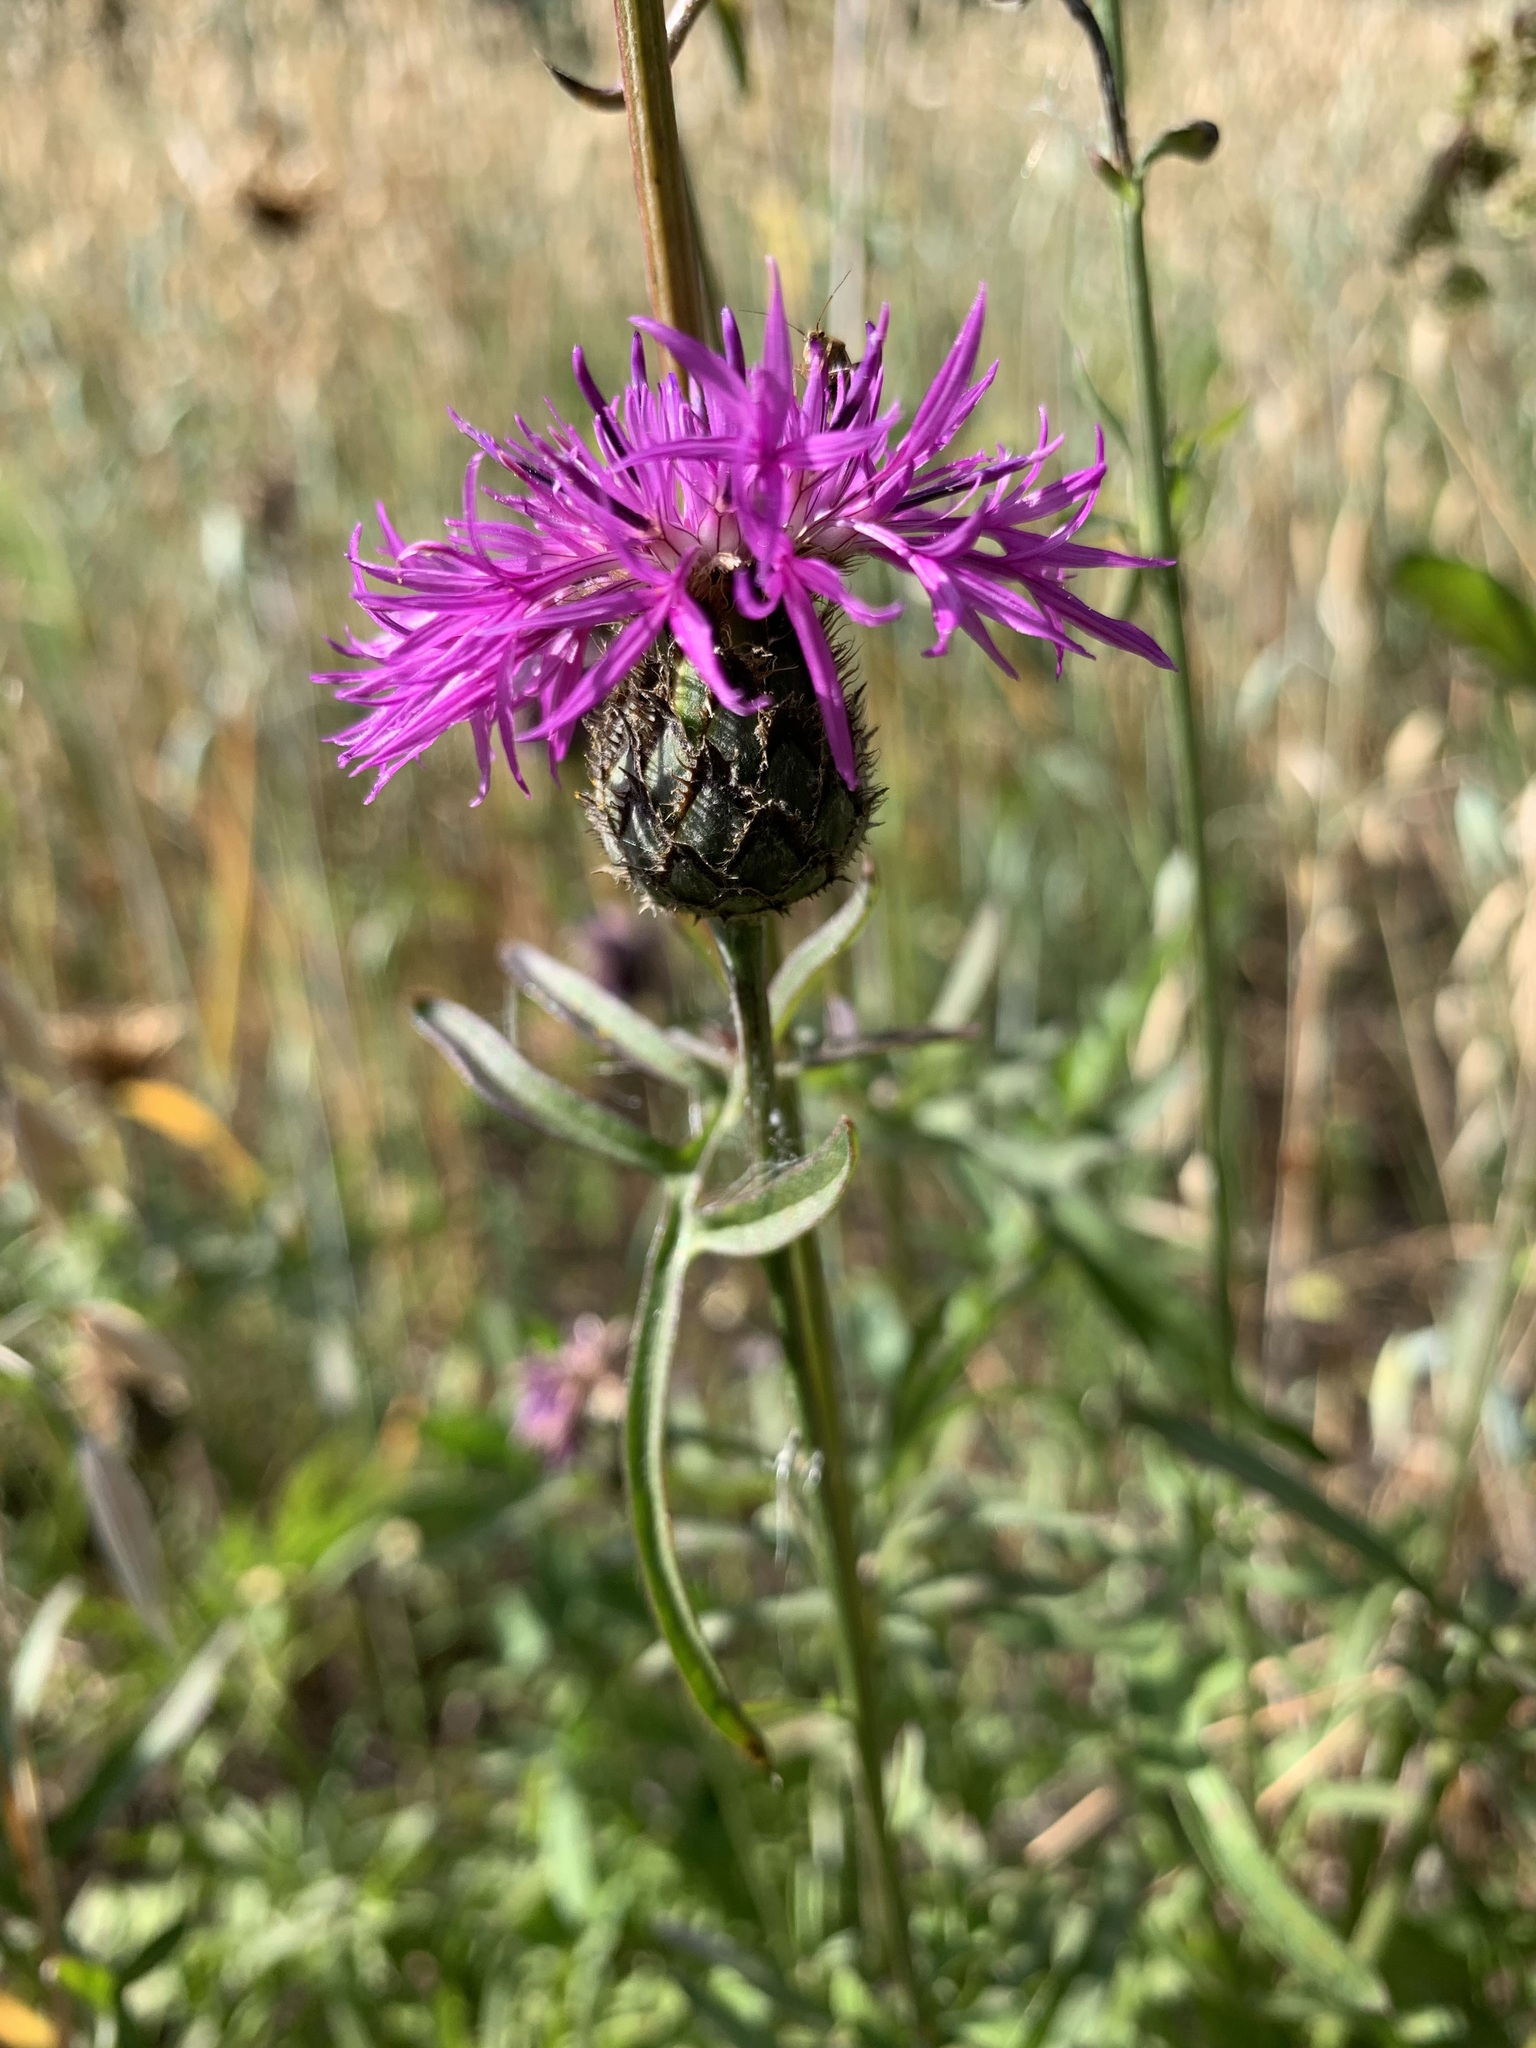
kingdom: Plantae
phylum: Tracheophyta
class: Magnoliopsida
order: Asterales
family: Asteraceae
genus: Centaurea
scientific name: Centaurea scabiosa
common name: Greater knapweed
